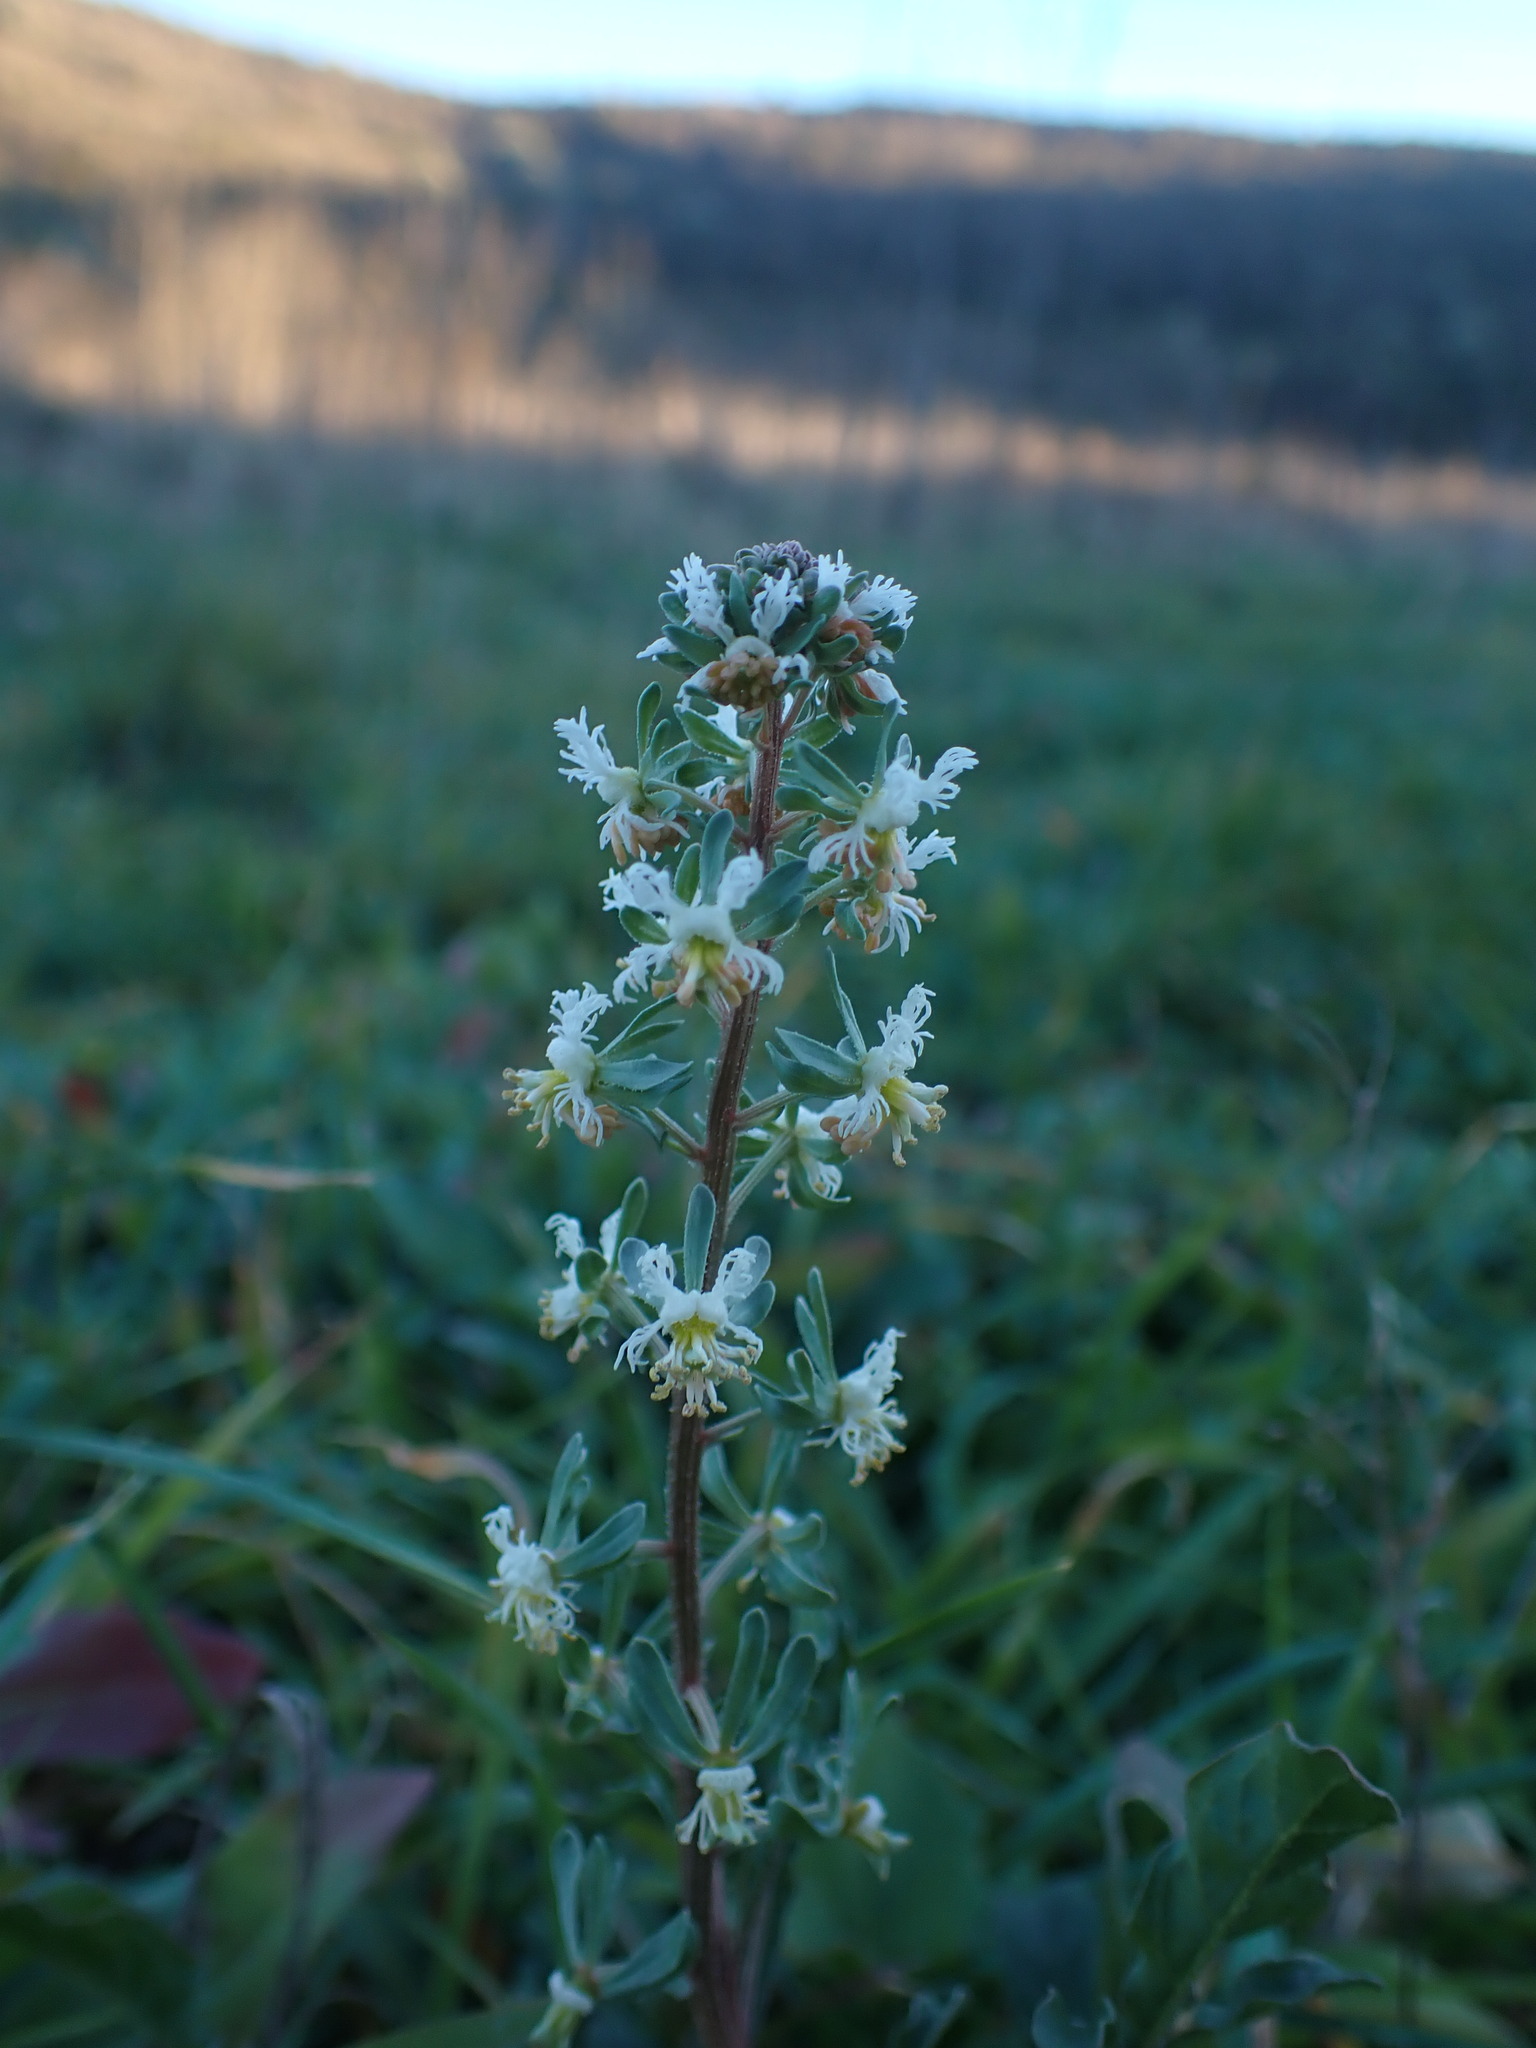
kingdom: Plantae
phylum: Tracheophyta
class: Magnoliopsida
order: Brassicales
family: Resedaceae
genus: Reseda
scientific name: Reseda phyteuma
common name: Corn mignonette
